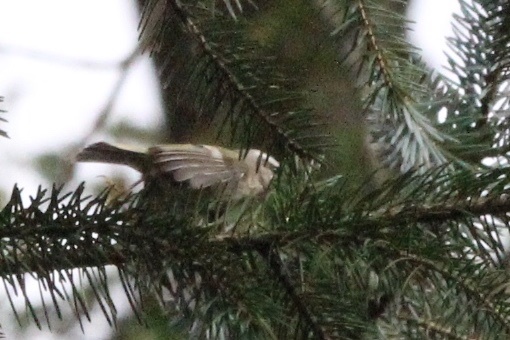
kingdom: Animalia
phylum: Chordata
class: Aves
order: Passeriformes
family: Regulidae
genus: Regulus
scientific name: Regulus satrapa
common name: Golden-crowned kinglet
